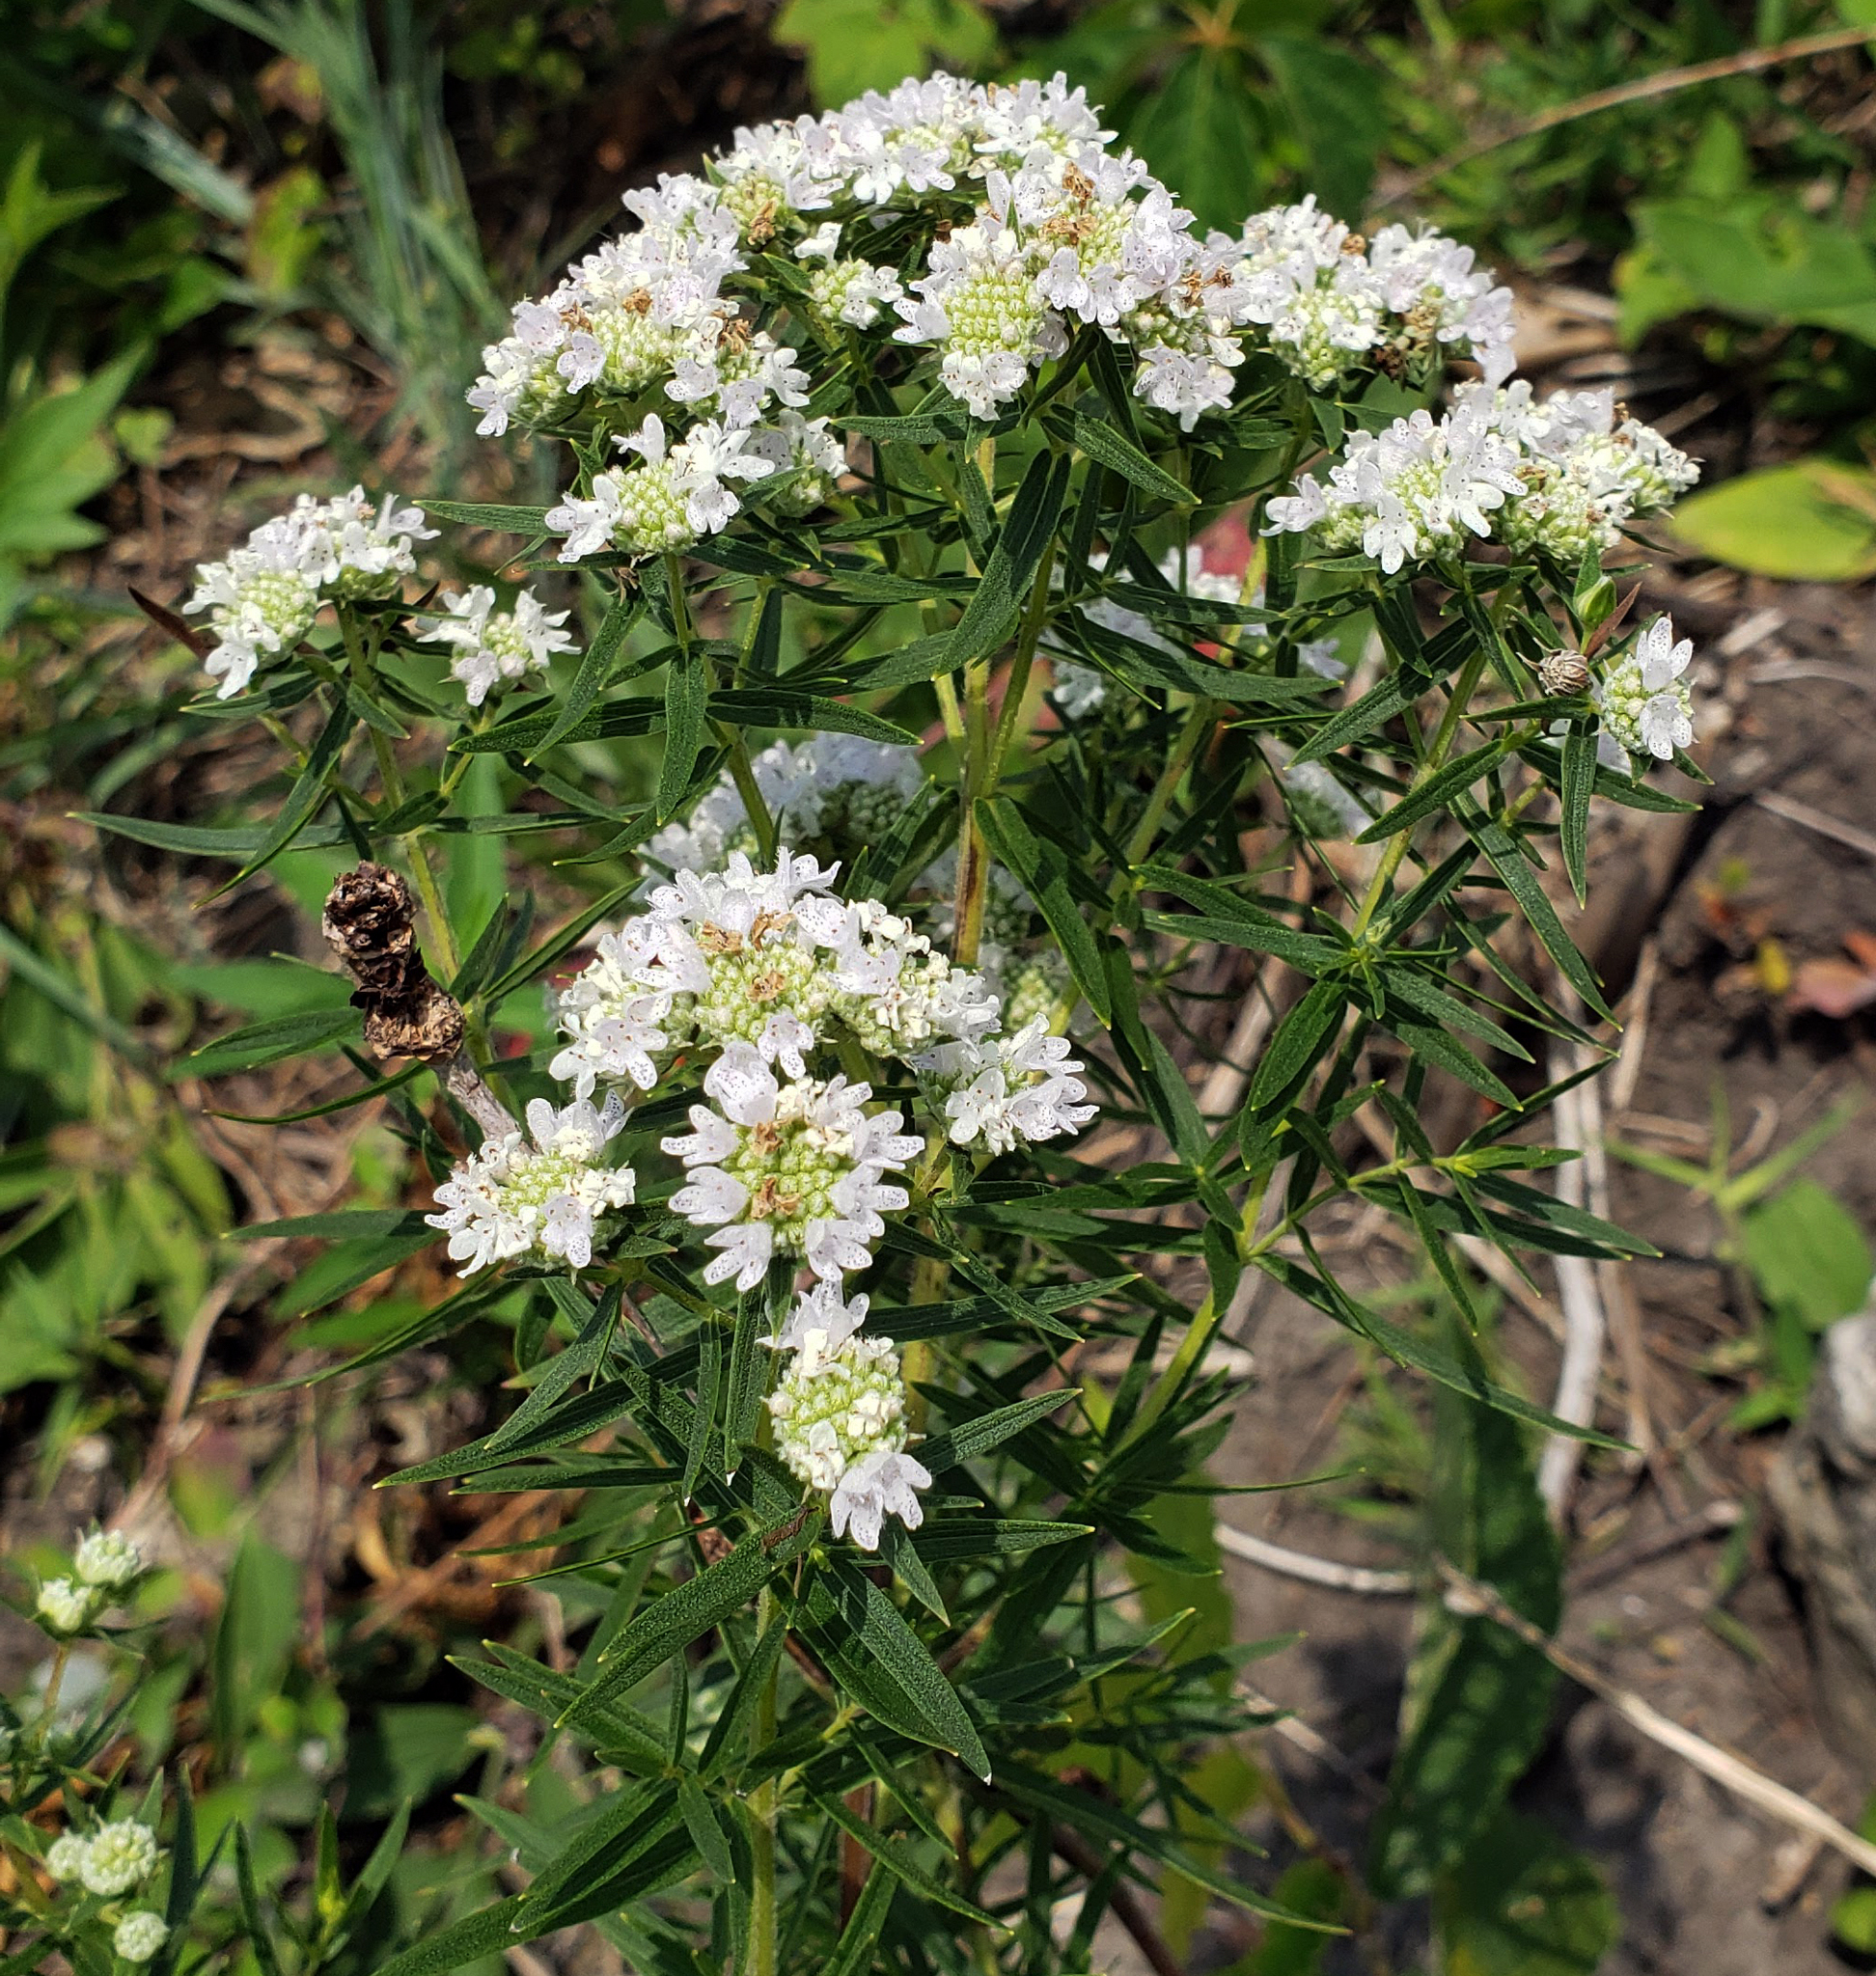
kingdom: Plantae
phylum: Tracheophyta
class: Magnoliopsida
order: Lamiales
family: Lamiaceae
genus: Pycnanthemum
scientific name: Pycnanthemum virginianum
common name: Virginia mountain-mint
